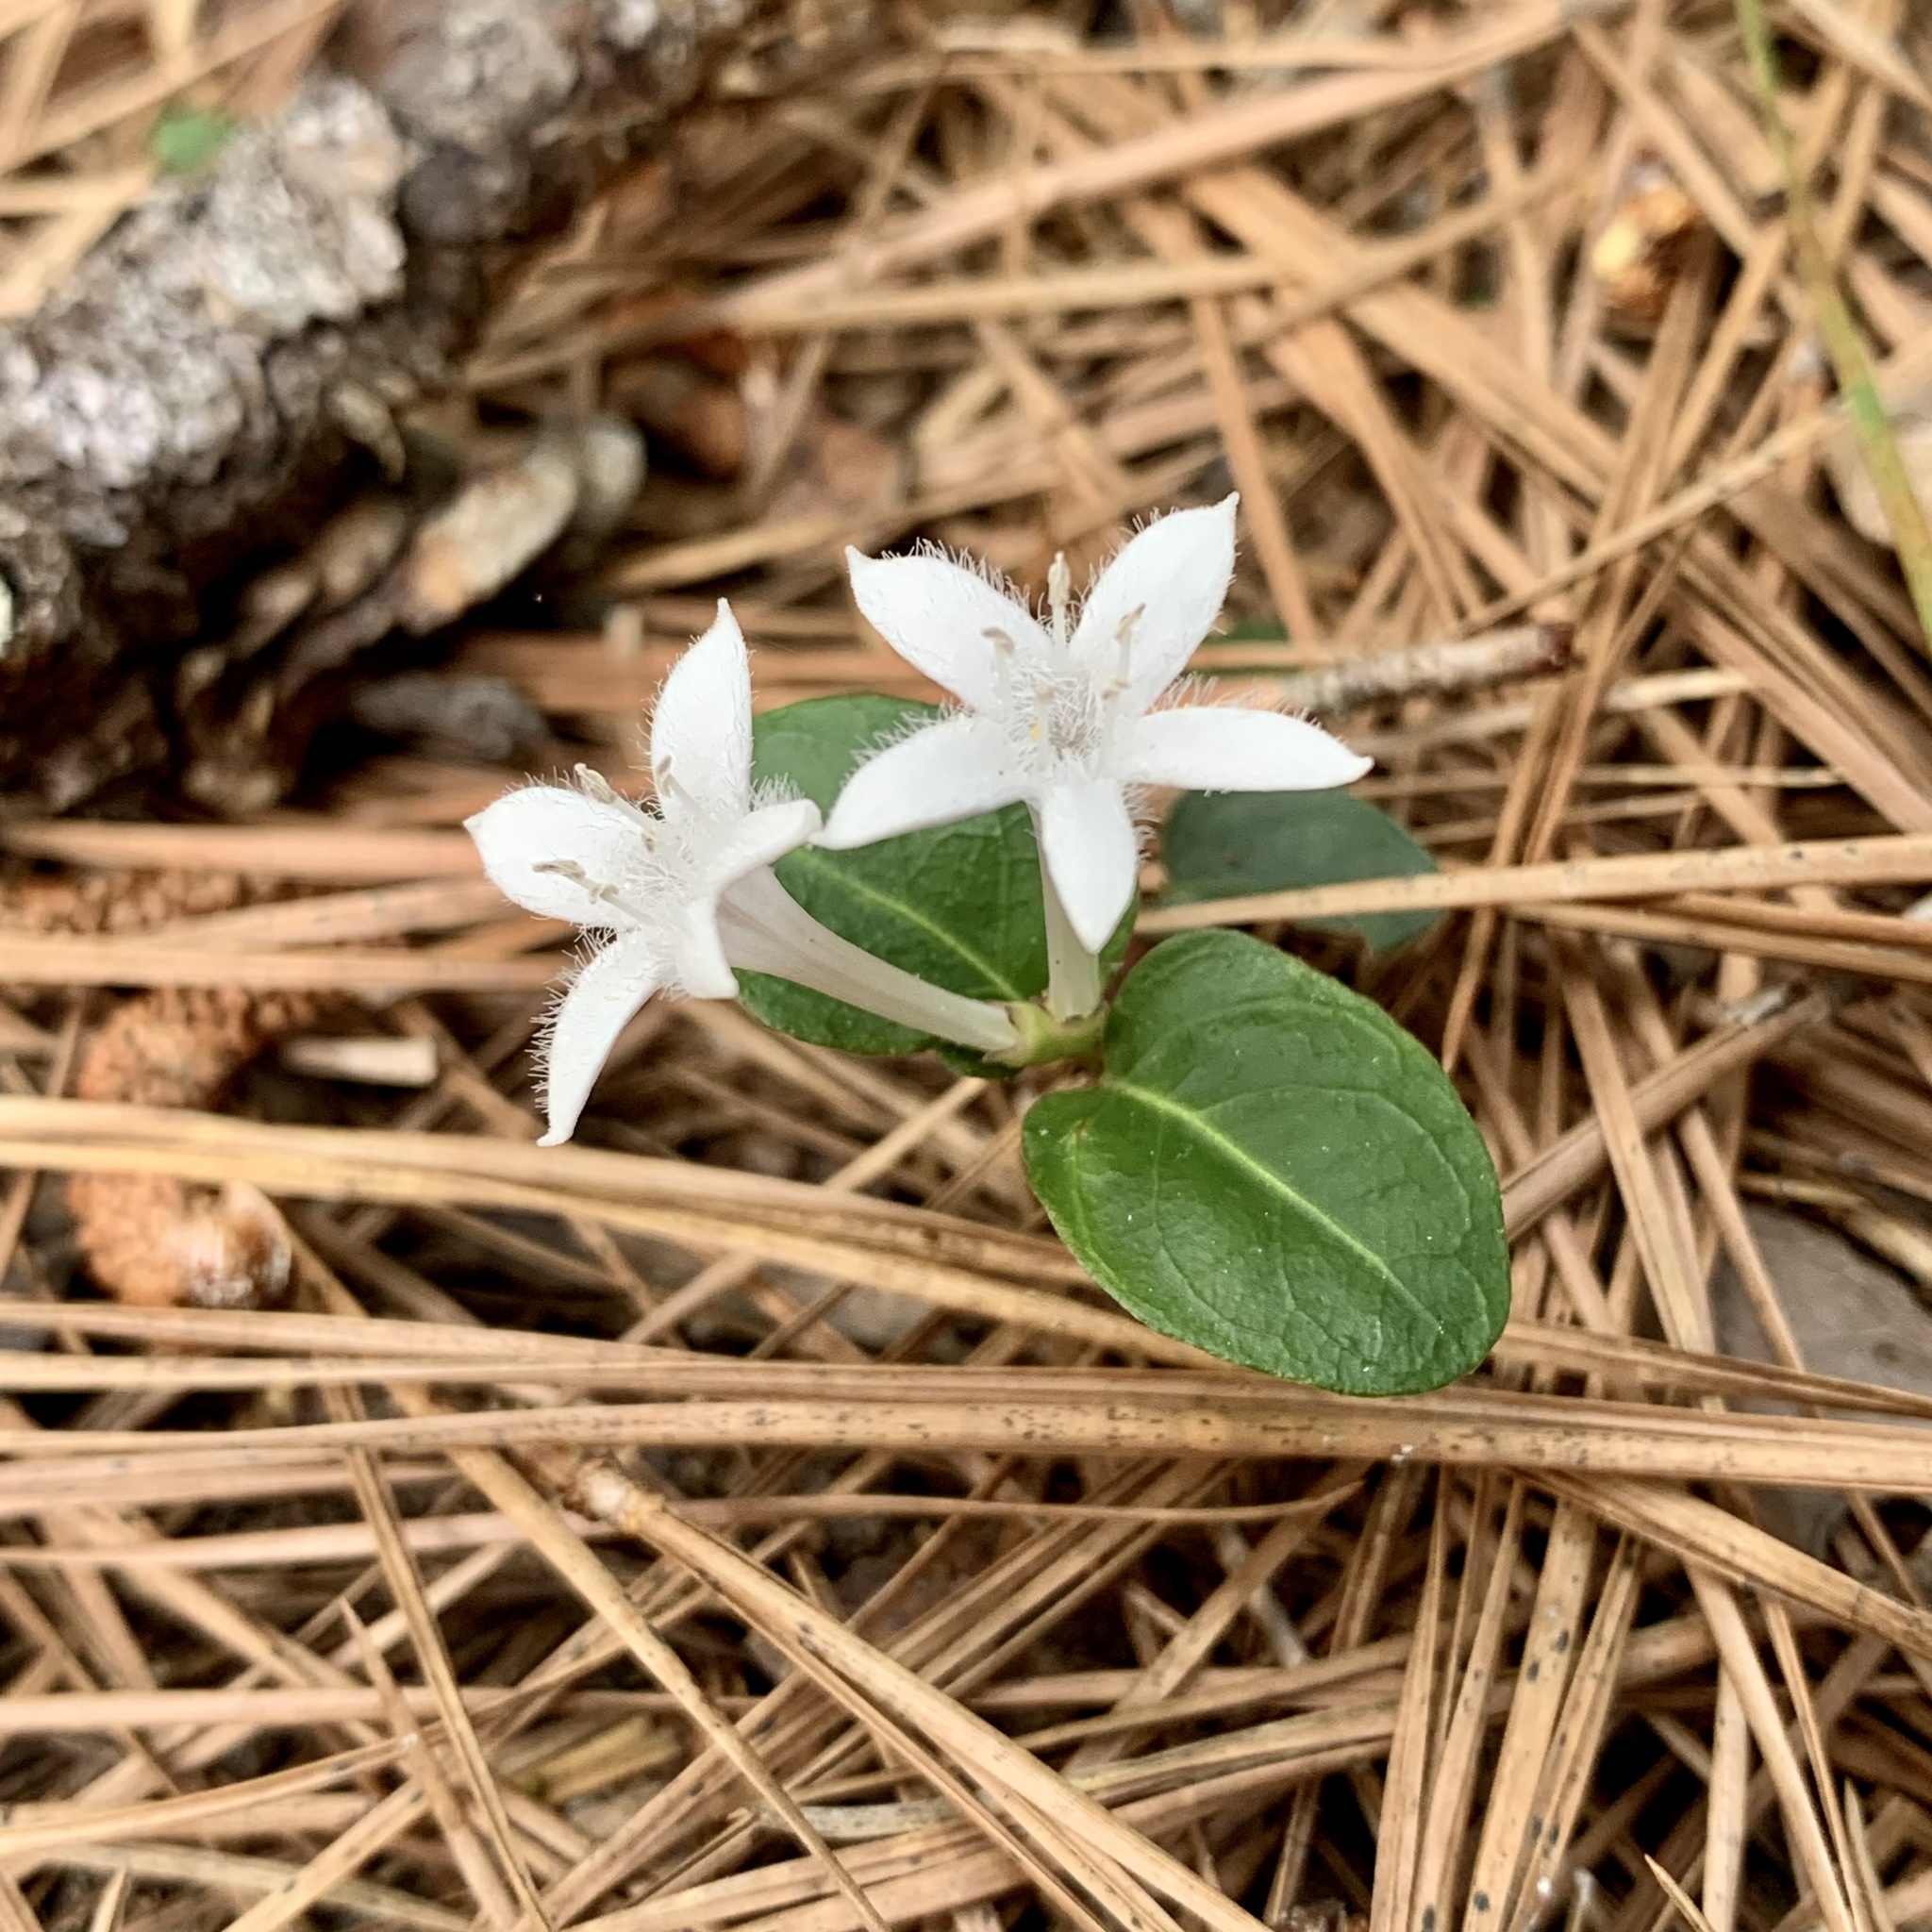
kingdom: Plantae
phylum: Tracheophyta
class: Magnoliopsida
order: Gentianales
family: Rubiaceae
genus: Mitchella
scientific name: Mitchella repens
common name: Partridge-berry
